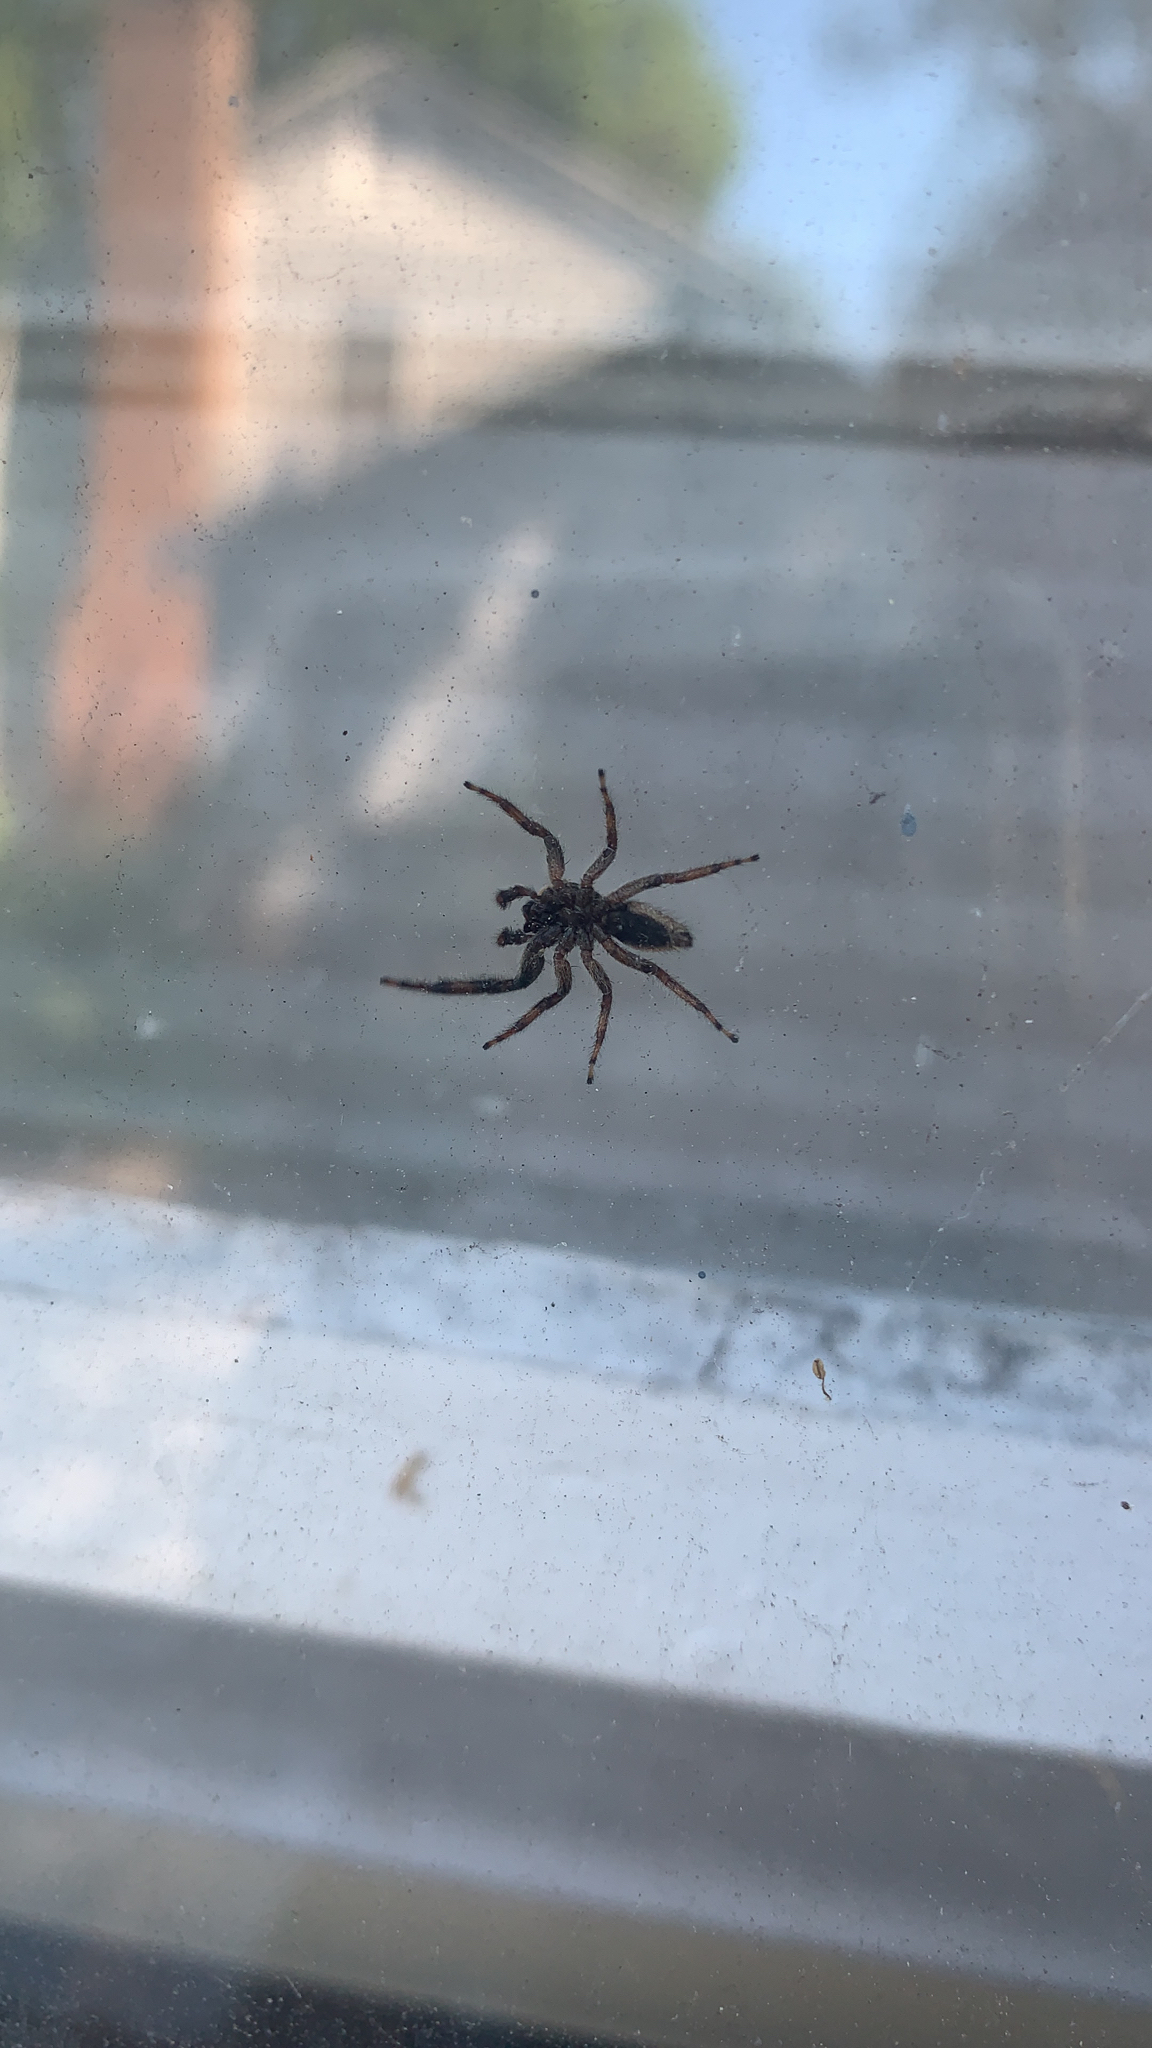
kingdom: Animalia
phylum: Arthropoda
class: Arachnida
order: Araneae
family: Salticidae
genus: Platycryptus
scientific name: Platycryptus undatus
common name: Tan jumping spider
